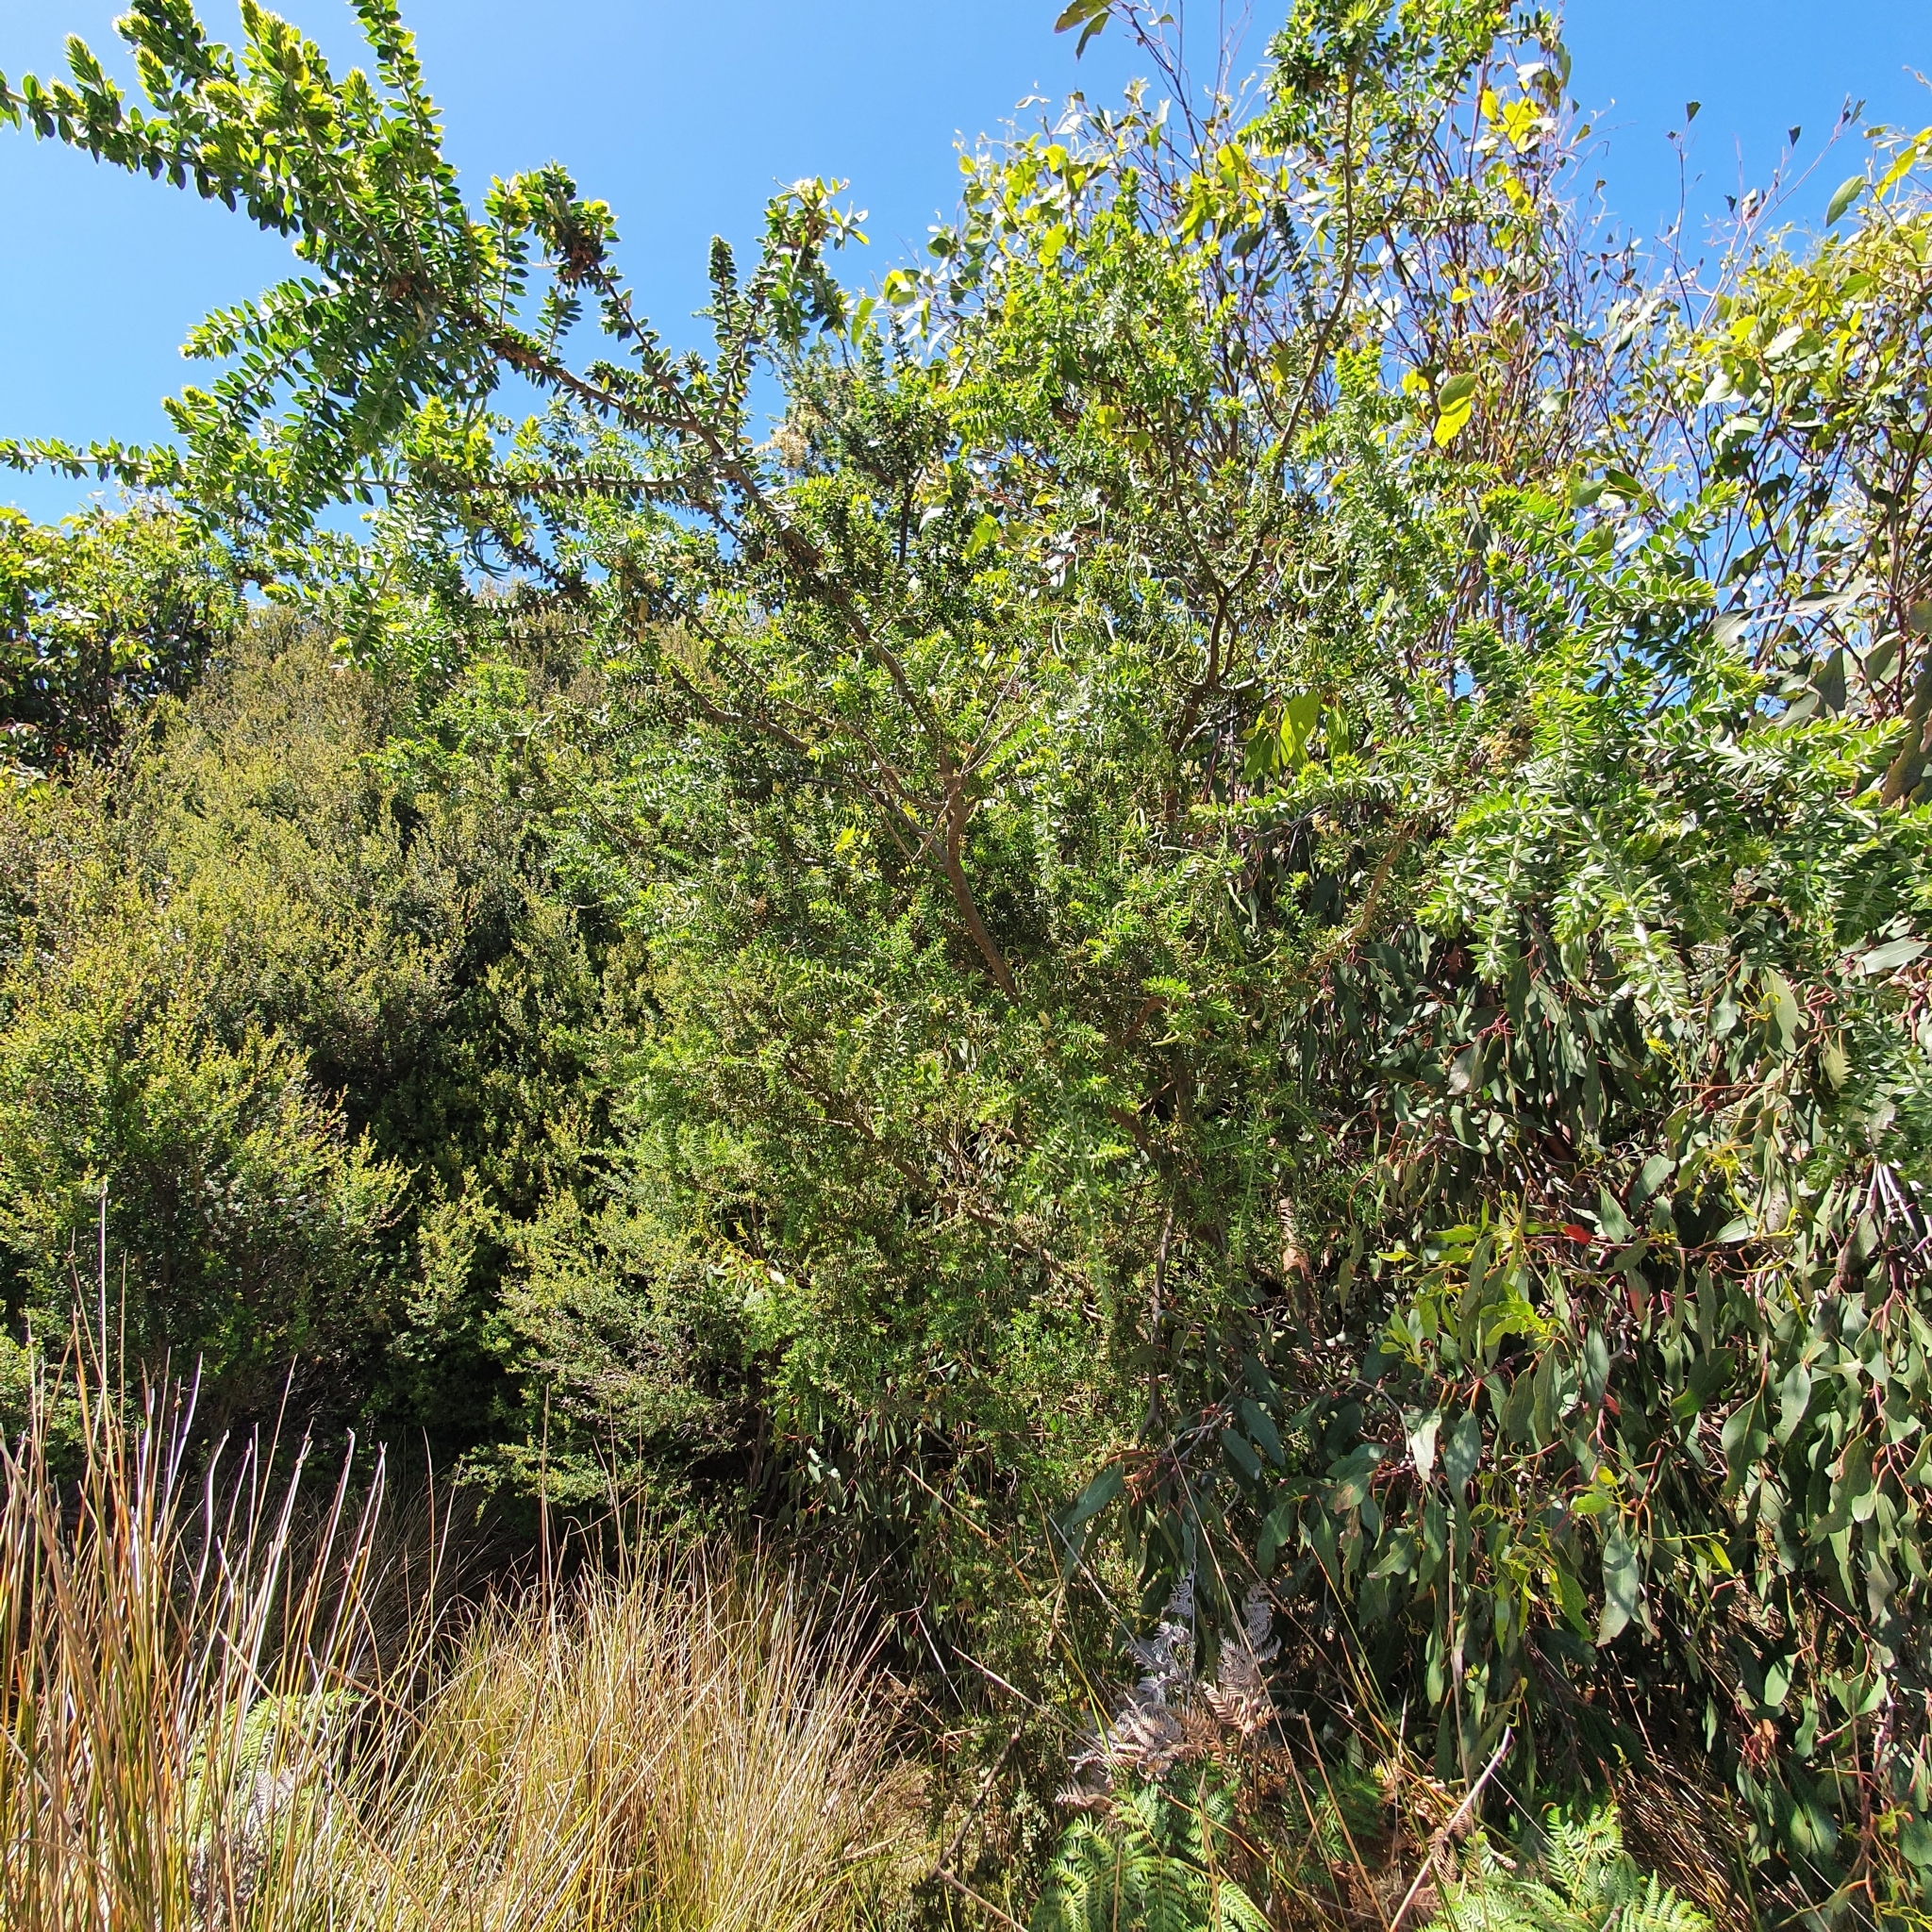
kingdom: Plantae
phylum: Tracheophyta
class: Magnoliopsida
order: Fabales
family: Fabaceae
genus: Acacia
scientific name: Acacia verticillata
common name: Prickly moses
